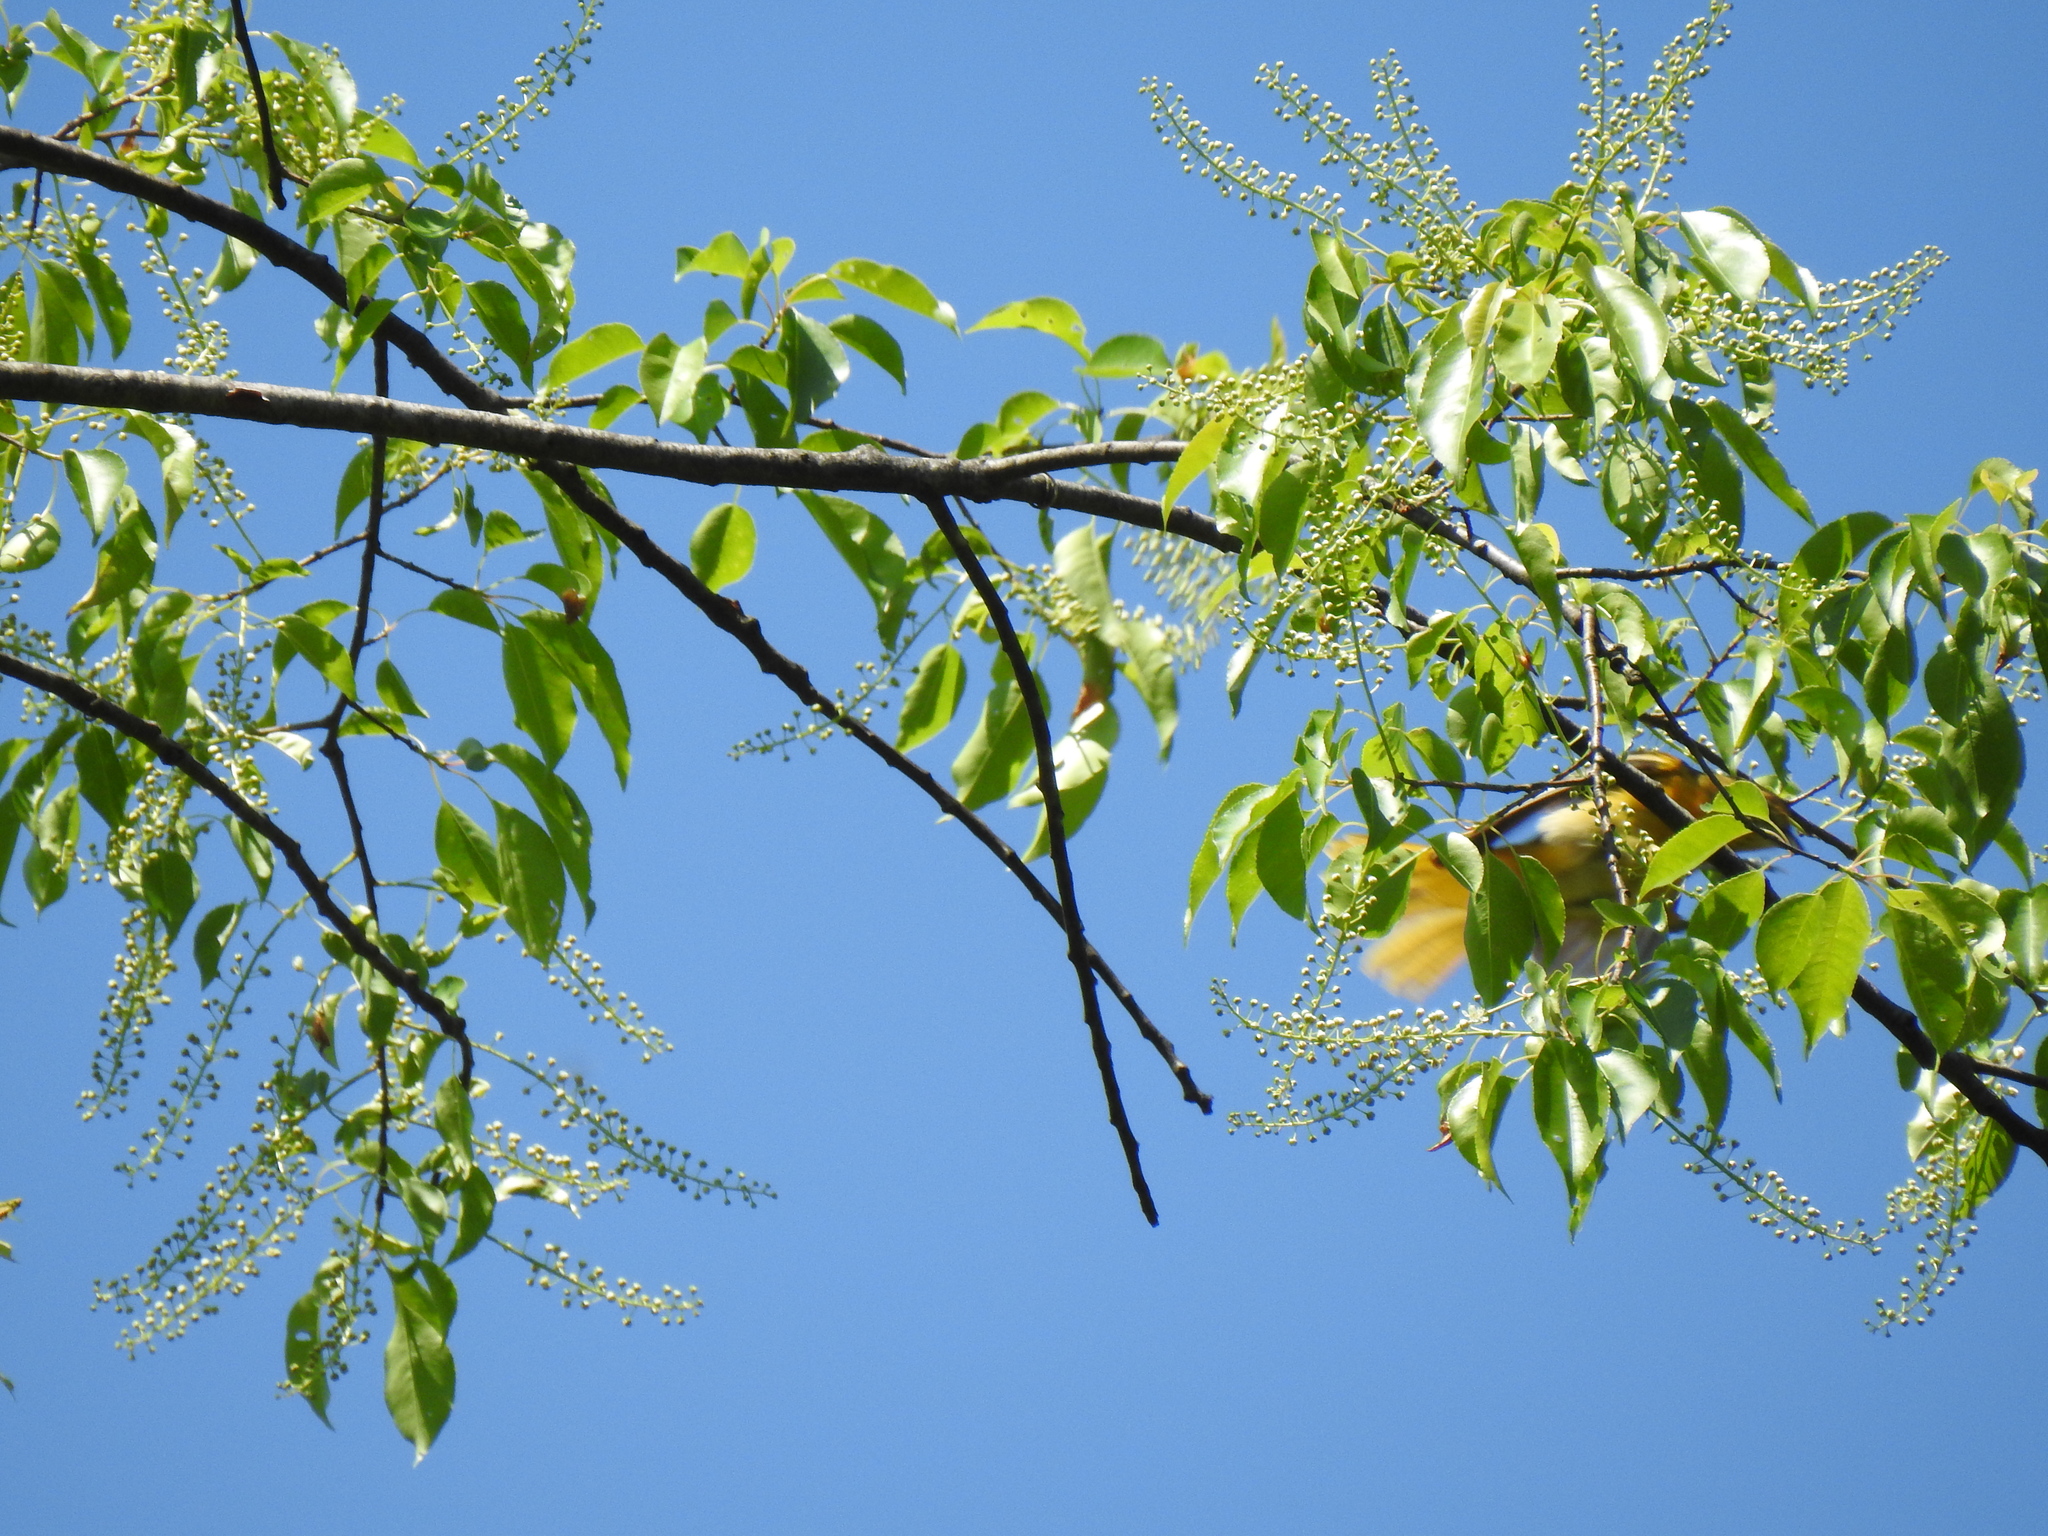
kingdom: Animalia
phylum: Chordata
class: Aves
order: Passeriformes
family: Icteridae
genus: Icterus
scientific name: Icterus galbula
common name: Baltimore oriole
